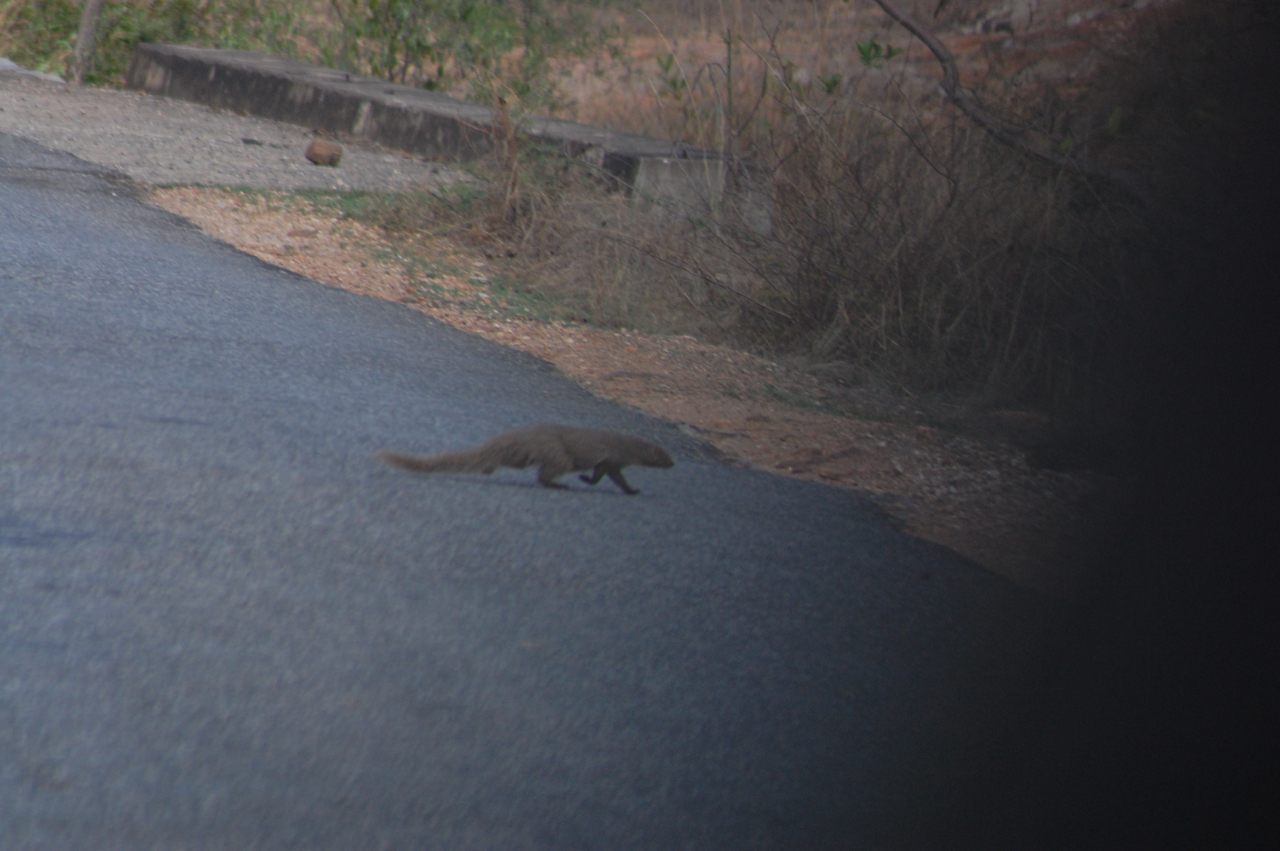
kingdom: Animalia
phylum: Chordata
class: Mammalia
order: Carnivora
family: Herpestidae
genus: Herpestes
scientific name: Herpestes edwardsi
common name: Indian gray mongoose
